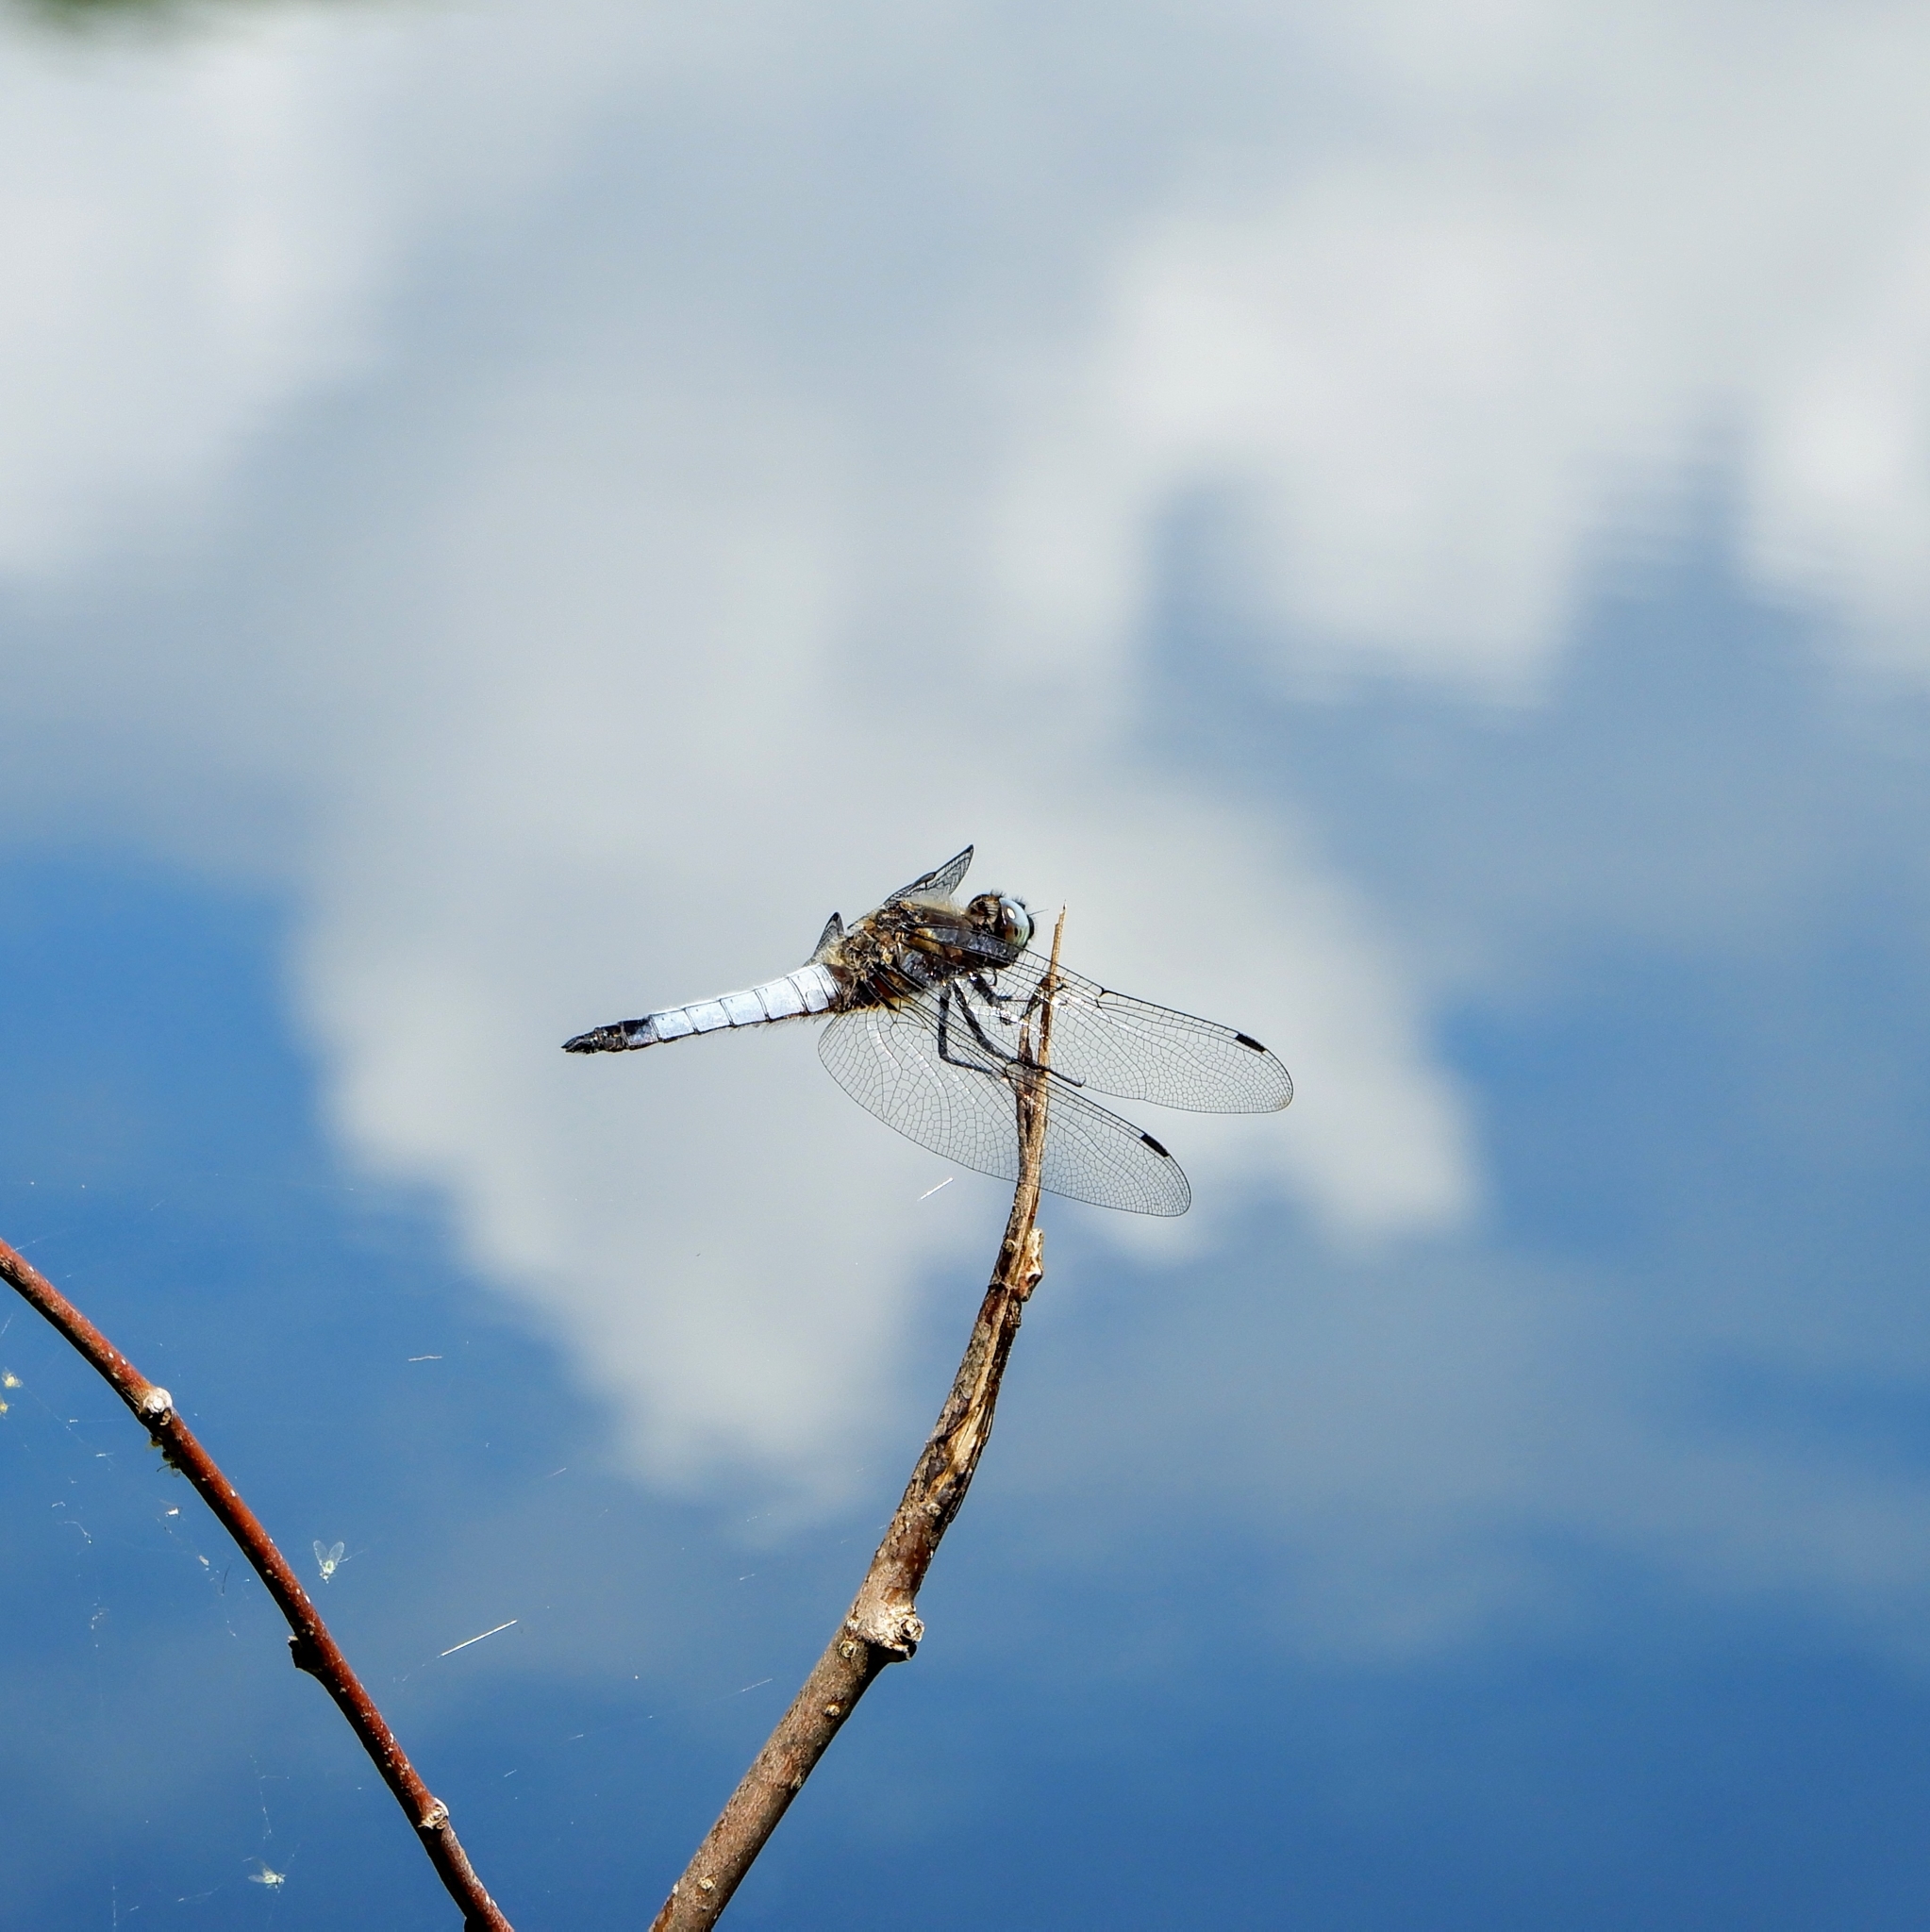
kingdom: Animalia
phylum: Arthropoda
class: Insecta
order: Odonata
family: Libellulidae
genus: Libellula
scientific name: Libellula fulva
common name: Blue chaser
